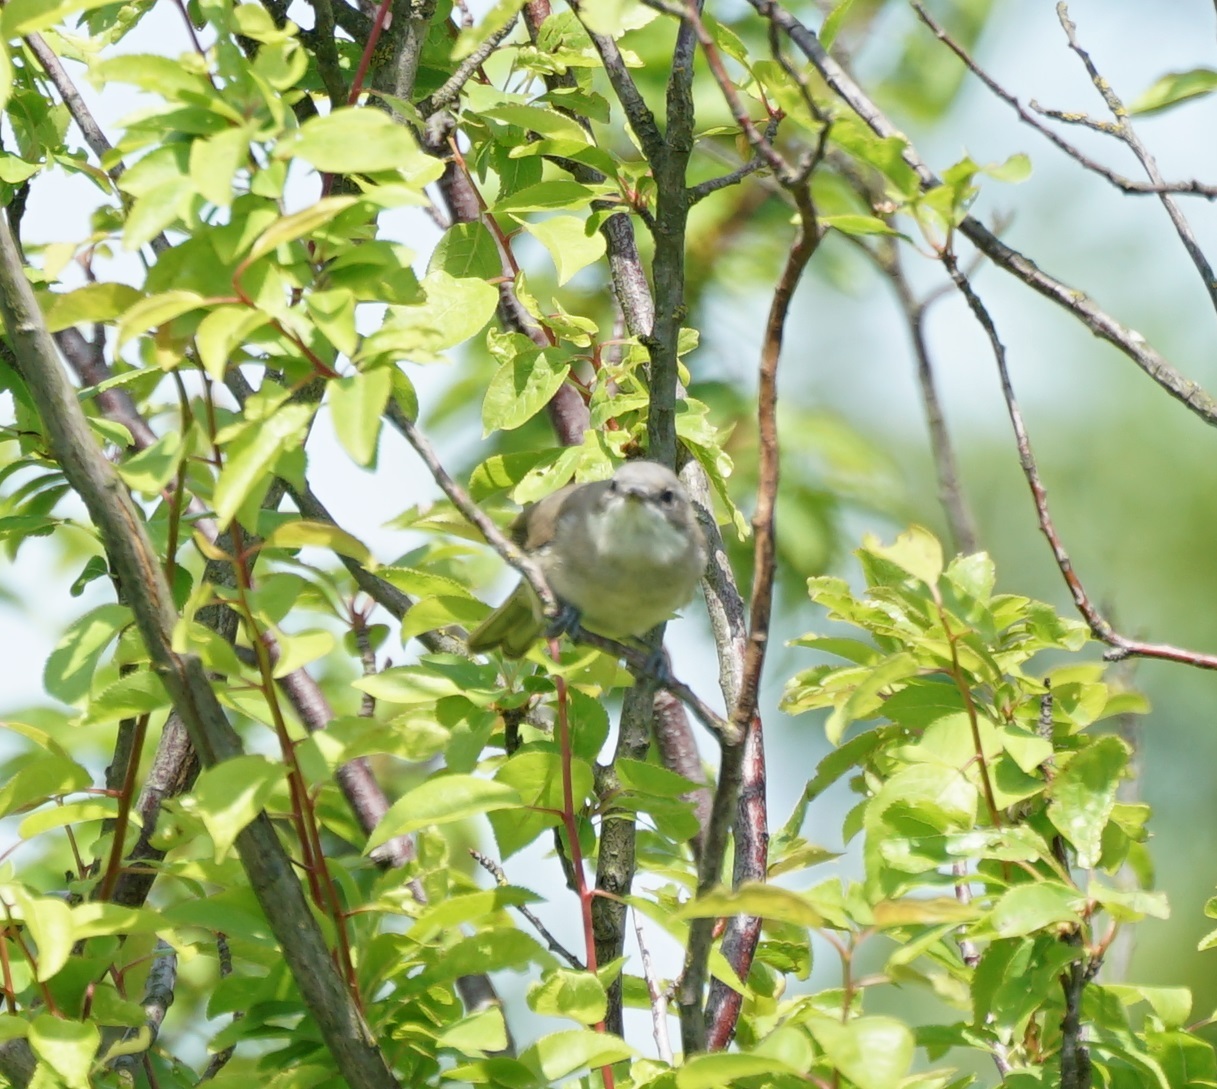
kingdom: Animalia
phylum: Chordata
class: Aves
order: Passeriformes
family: Sylviidae
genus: Sylvia
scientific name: Sylvia curruca
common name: Lesser whitethroat
